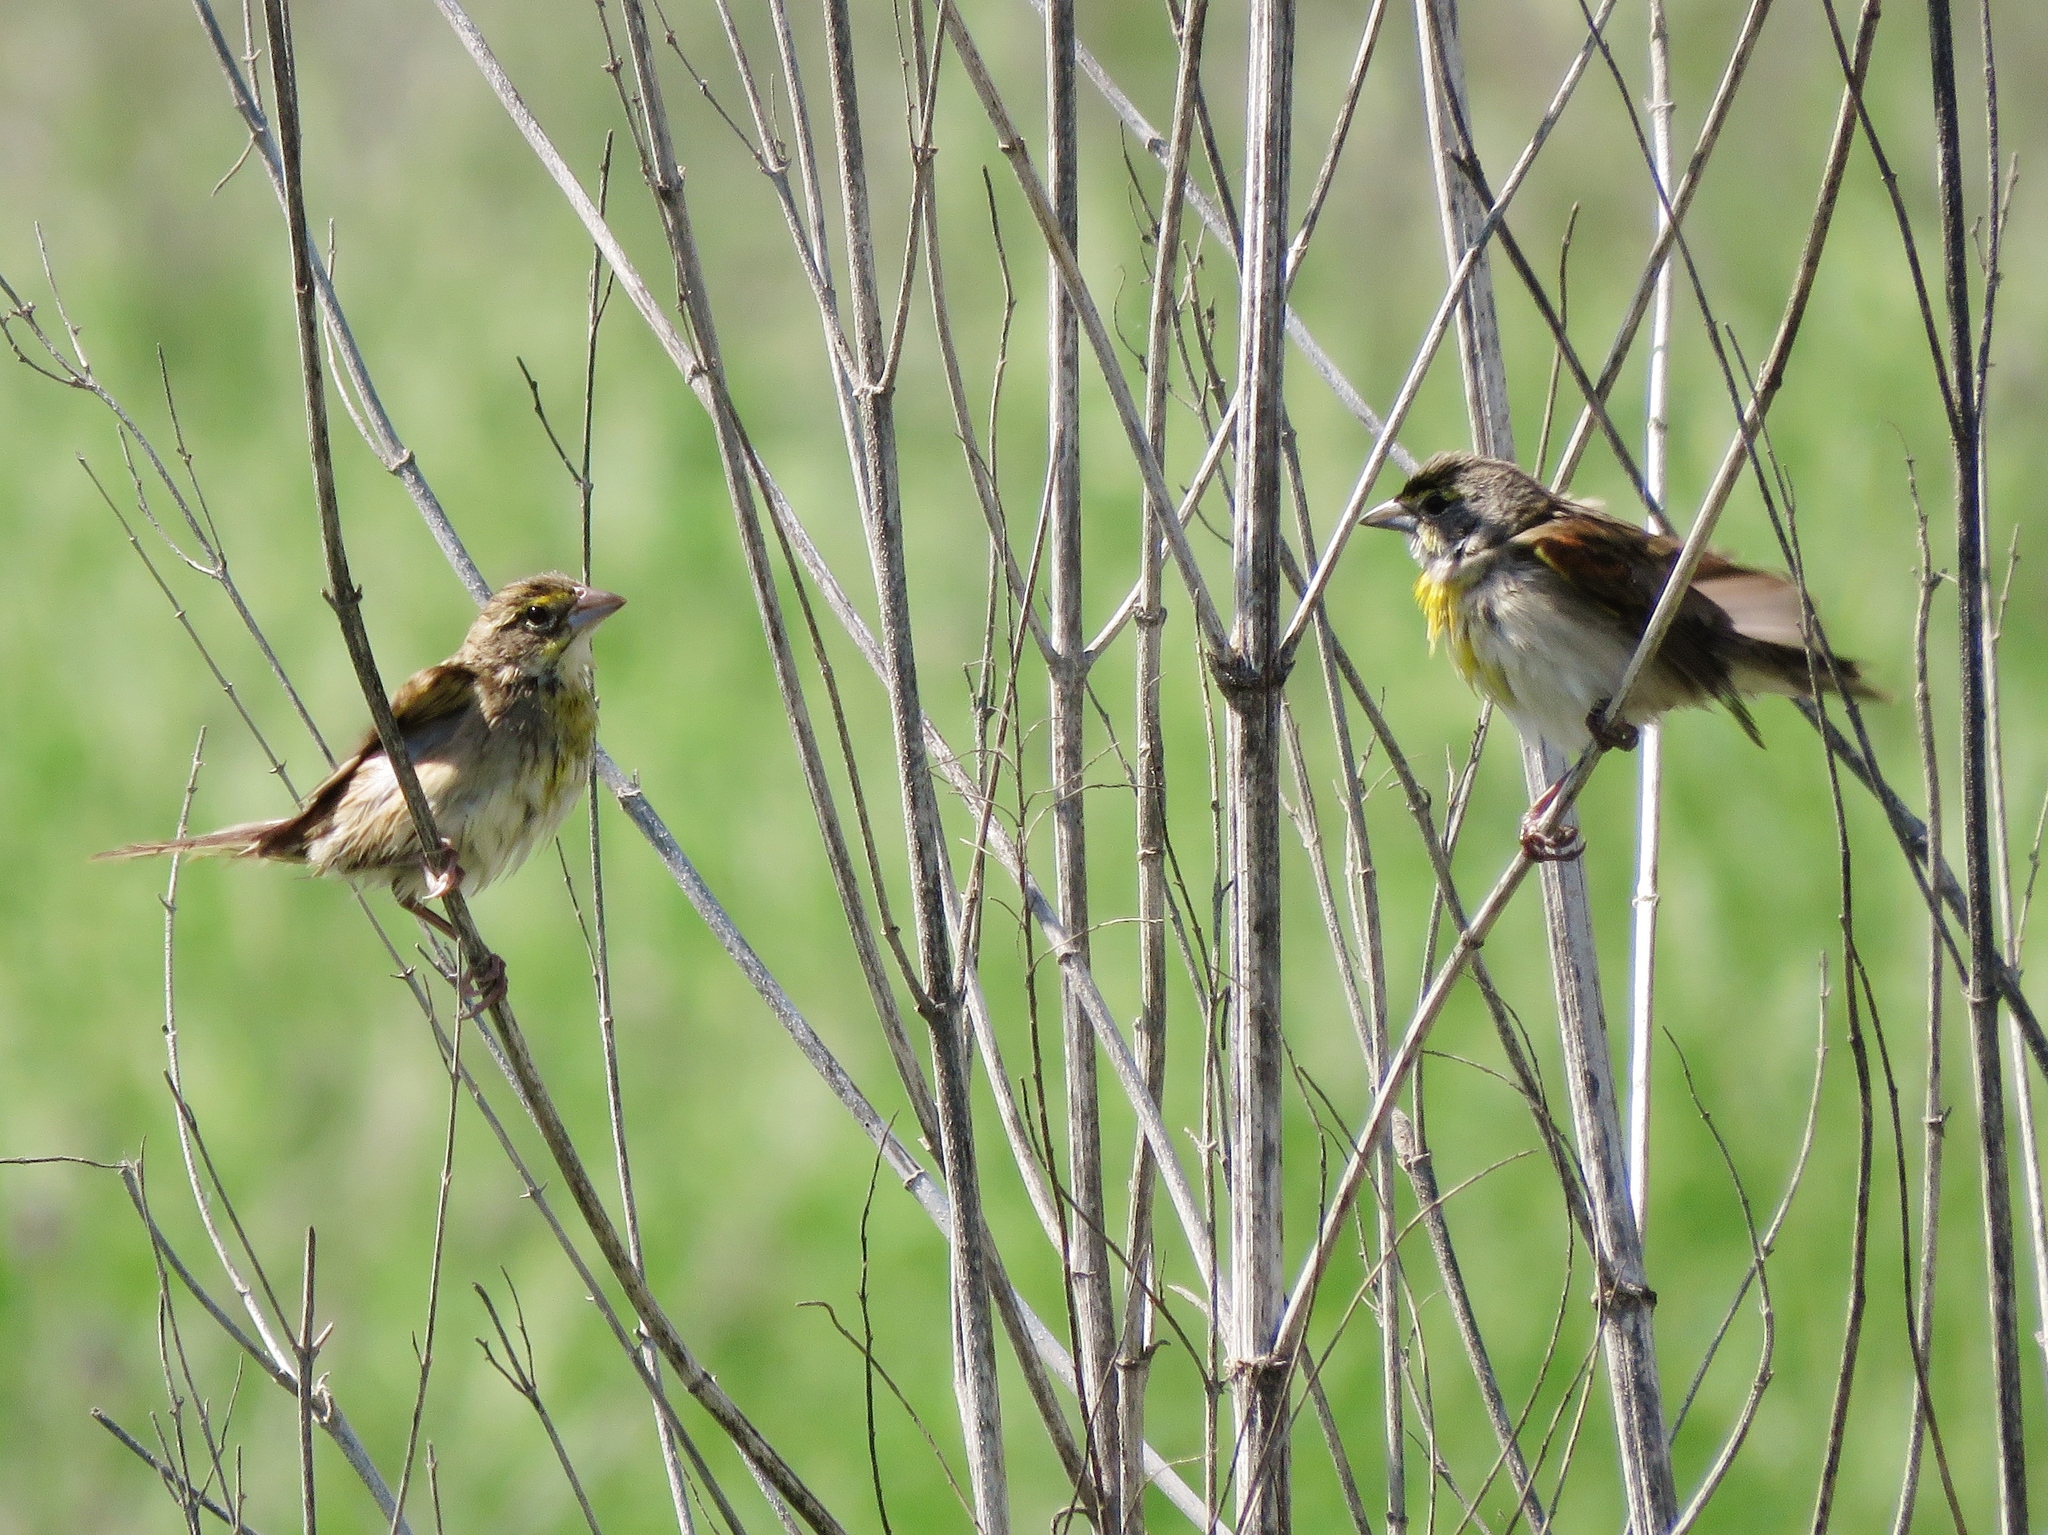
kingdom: Animalia
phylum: Chordata
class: Aves
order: Passeriformes
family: Cardinalidae
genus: Spiza
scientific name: Spiza americana
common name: Dickcissel
